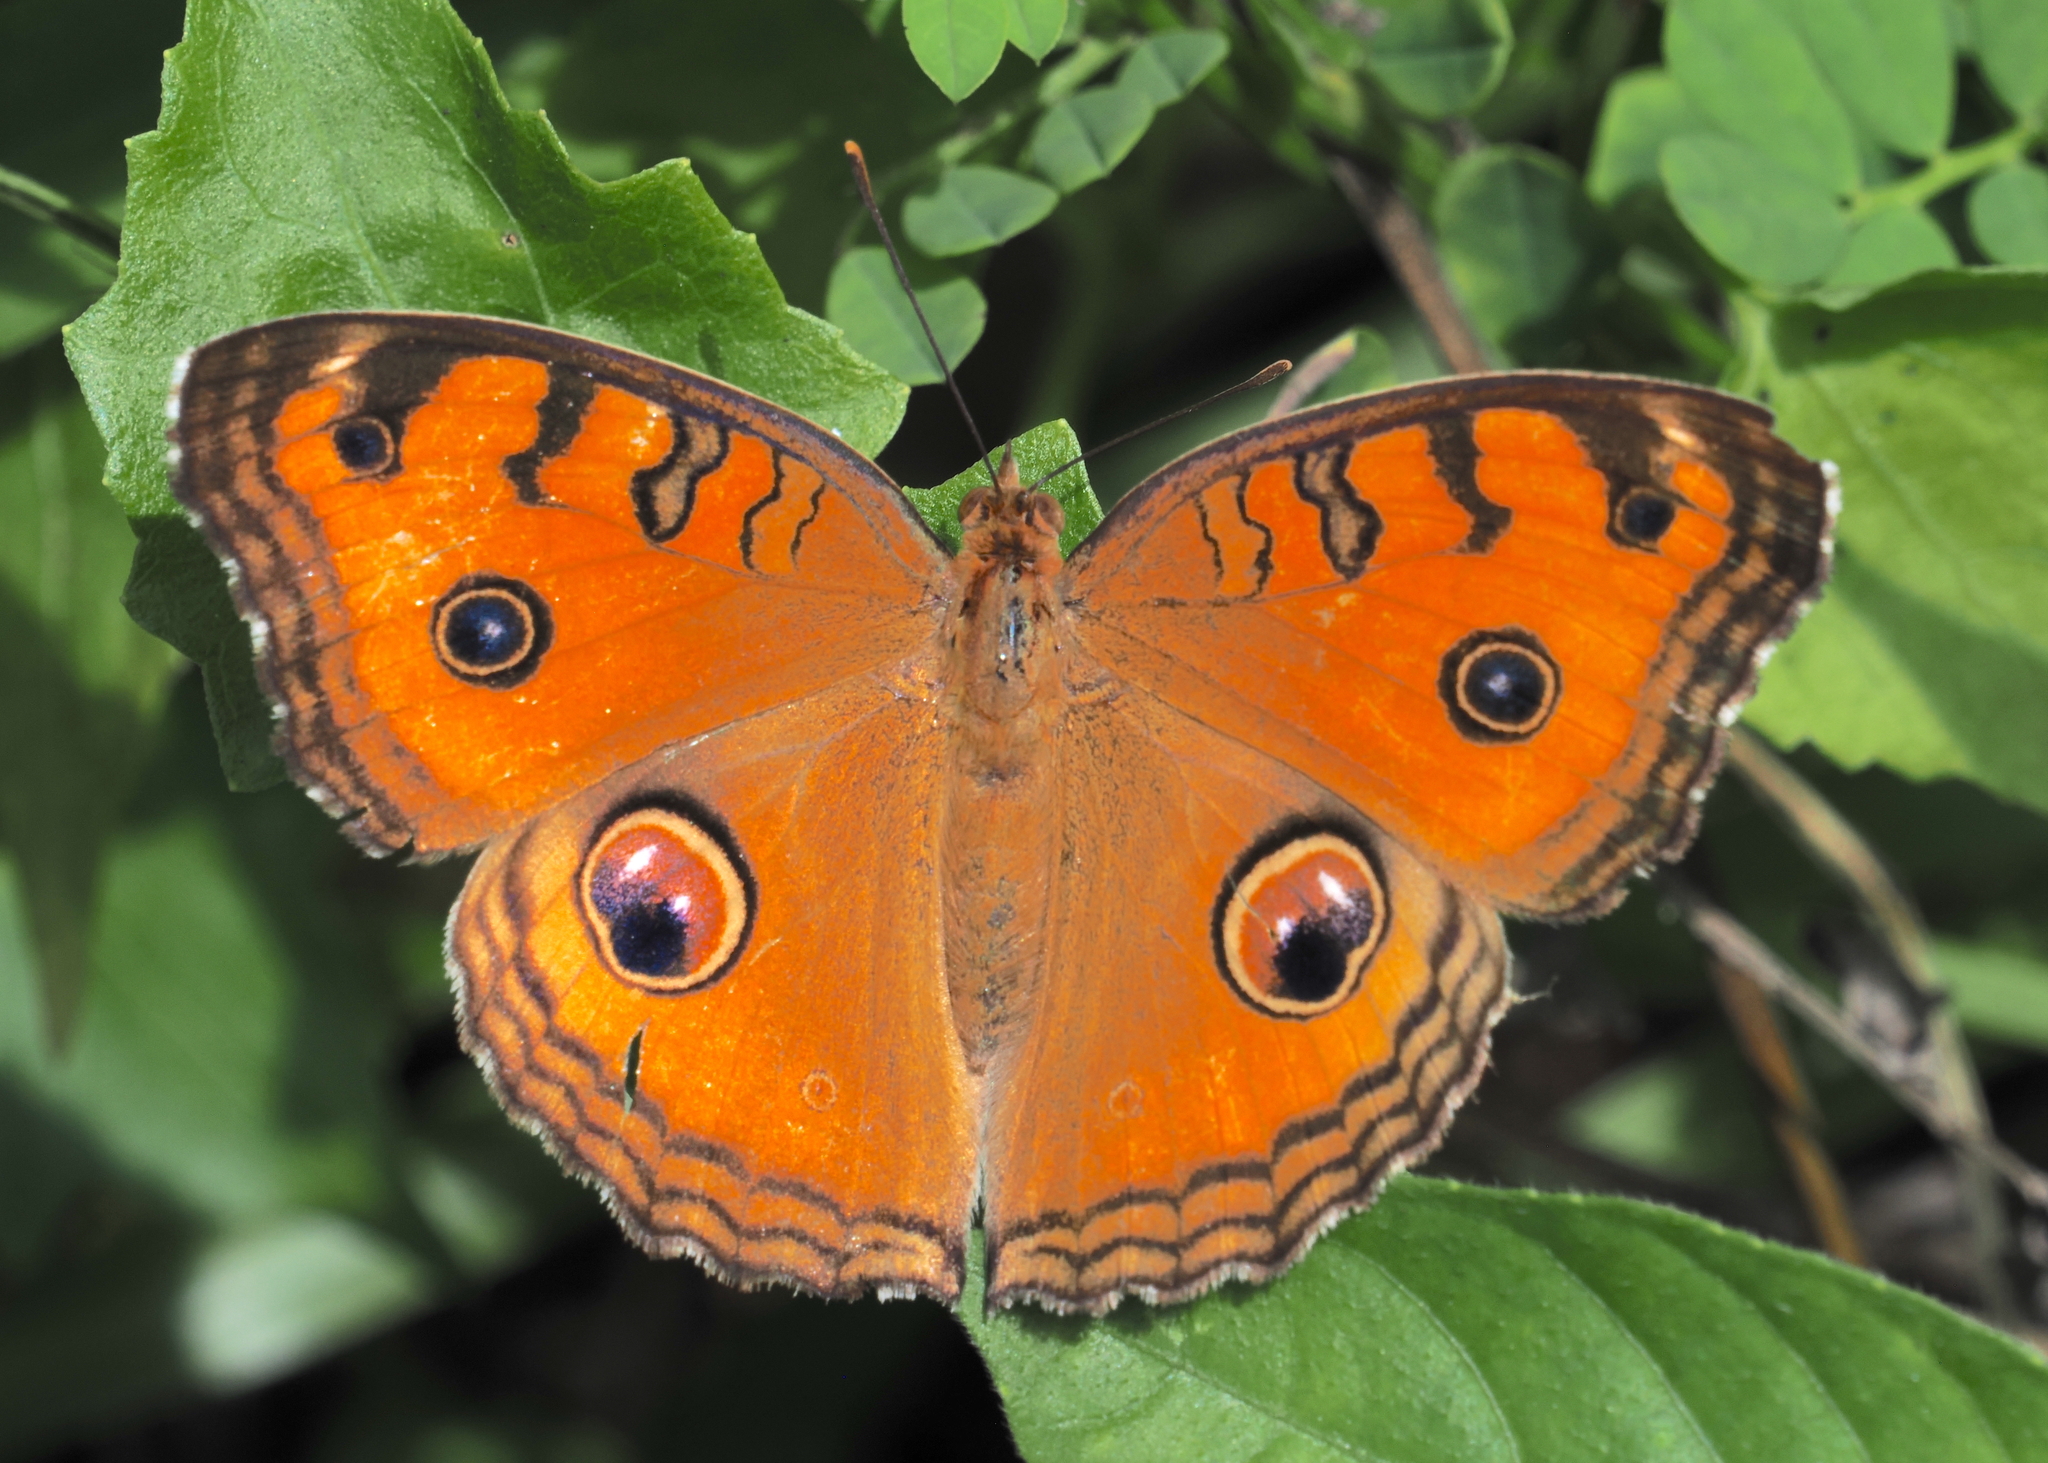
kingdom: Animalia
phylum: Arthropoda
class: Insecta
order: Lepidoptera
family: Nymphalidae
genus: Junonia
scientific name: Junonia almana
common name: Peacock pansy
